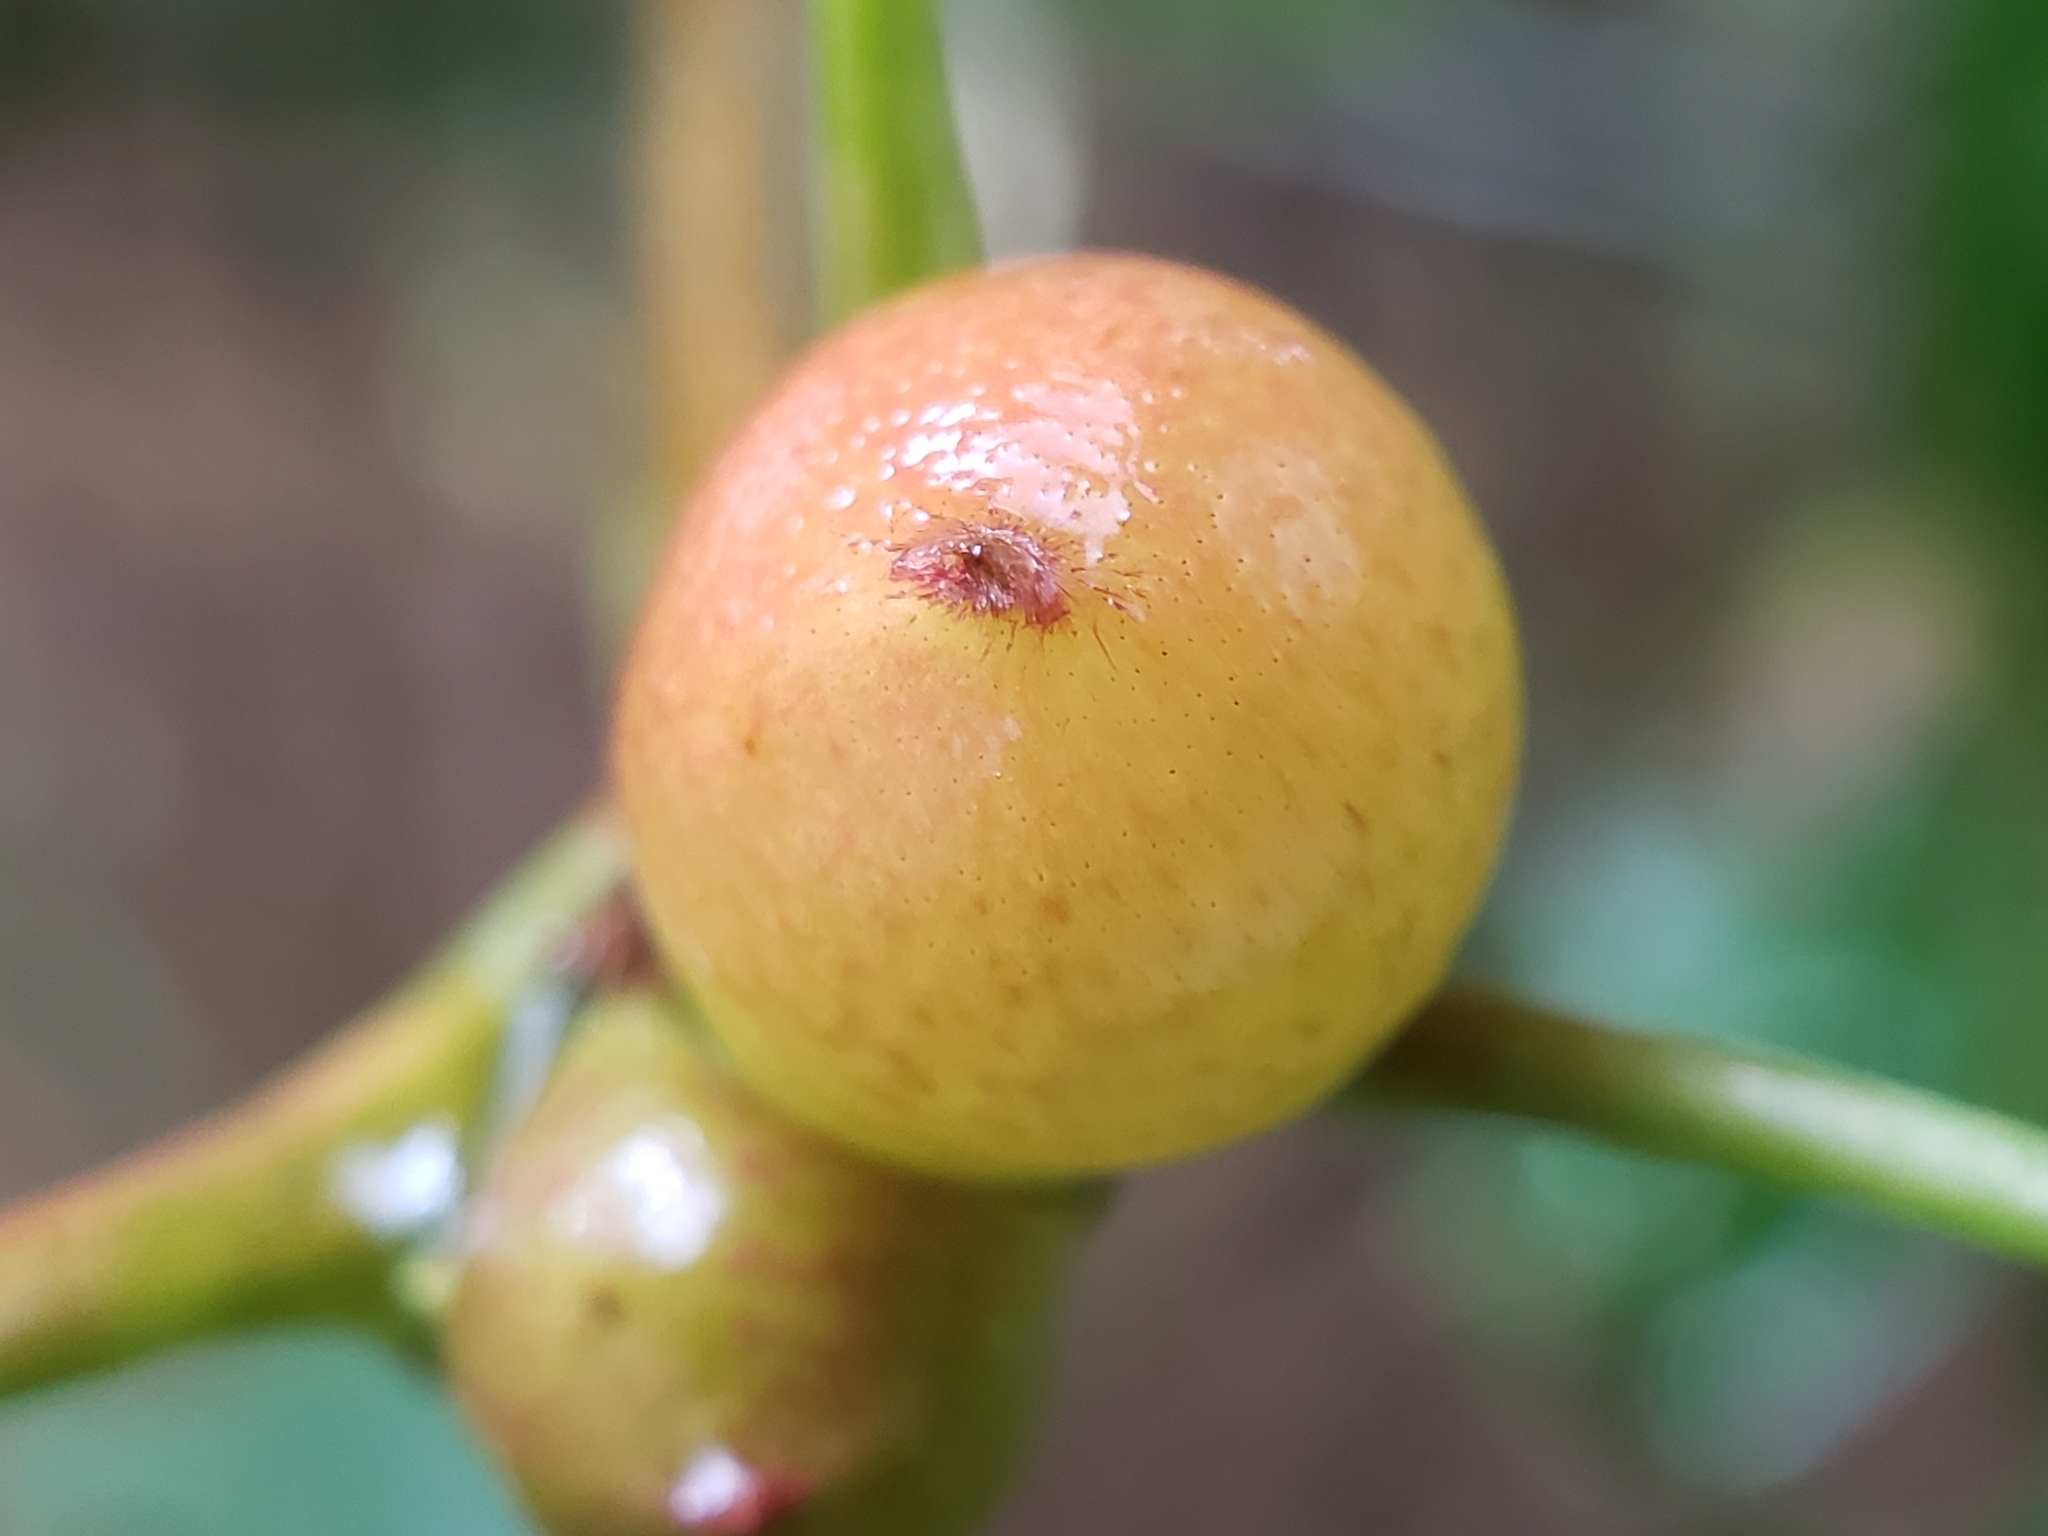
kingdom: Animalia
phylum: Arthropoda
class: Insecta
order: Hymenoptera
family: Cynipidae
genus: Amphibolips
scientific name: Amphibolips
